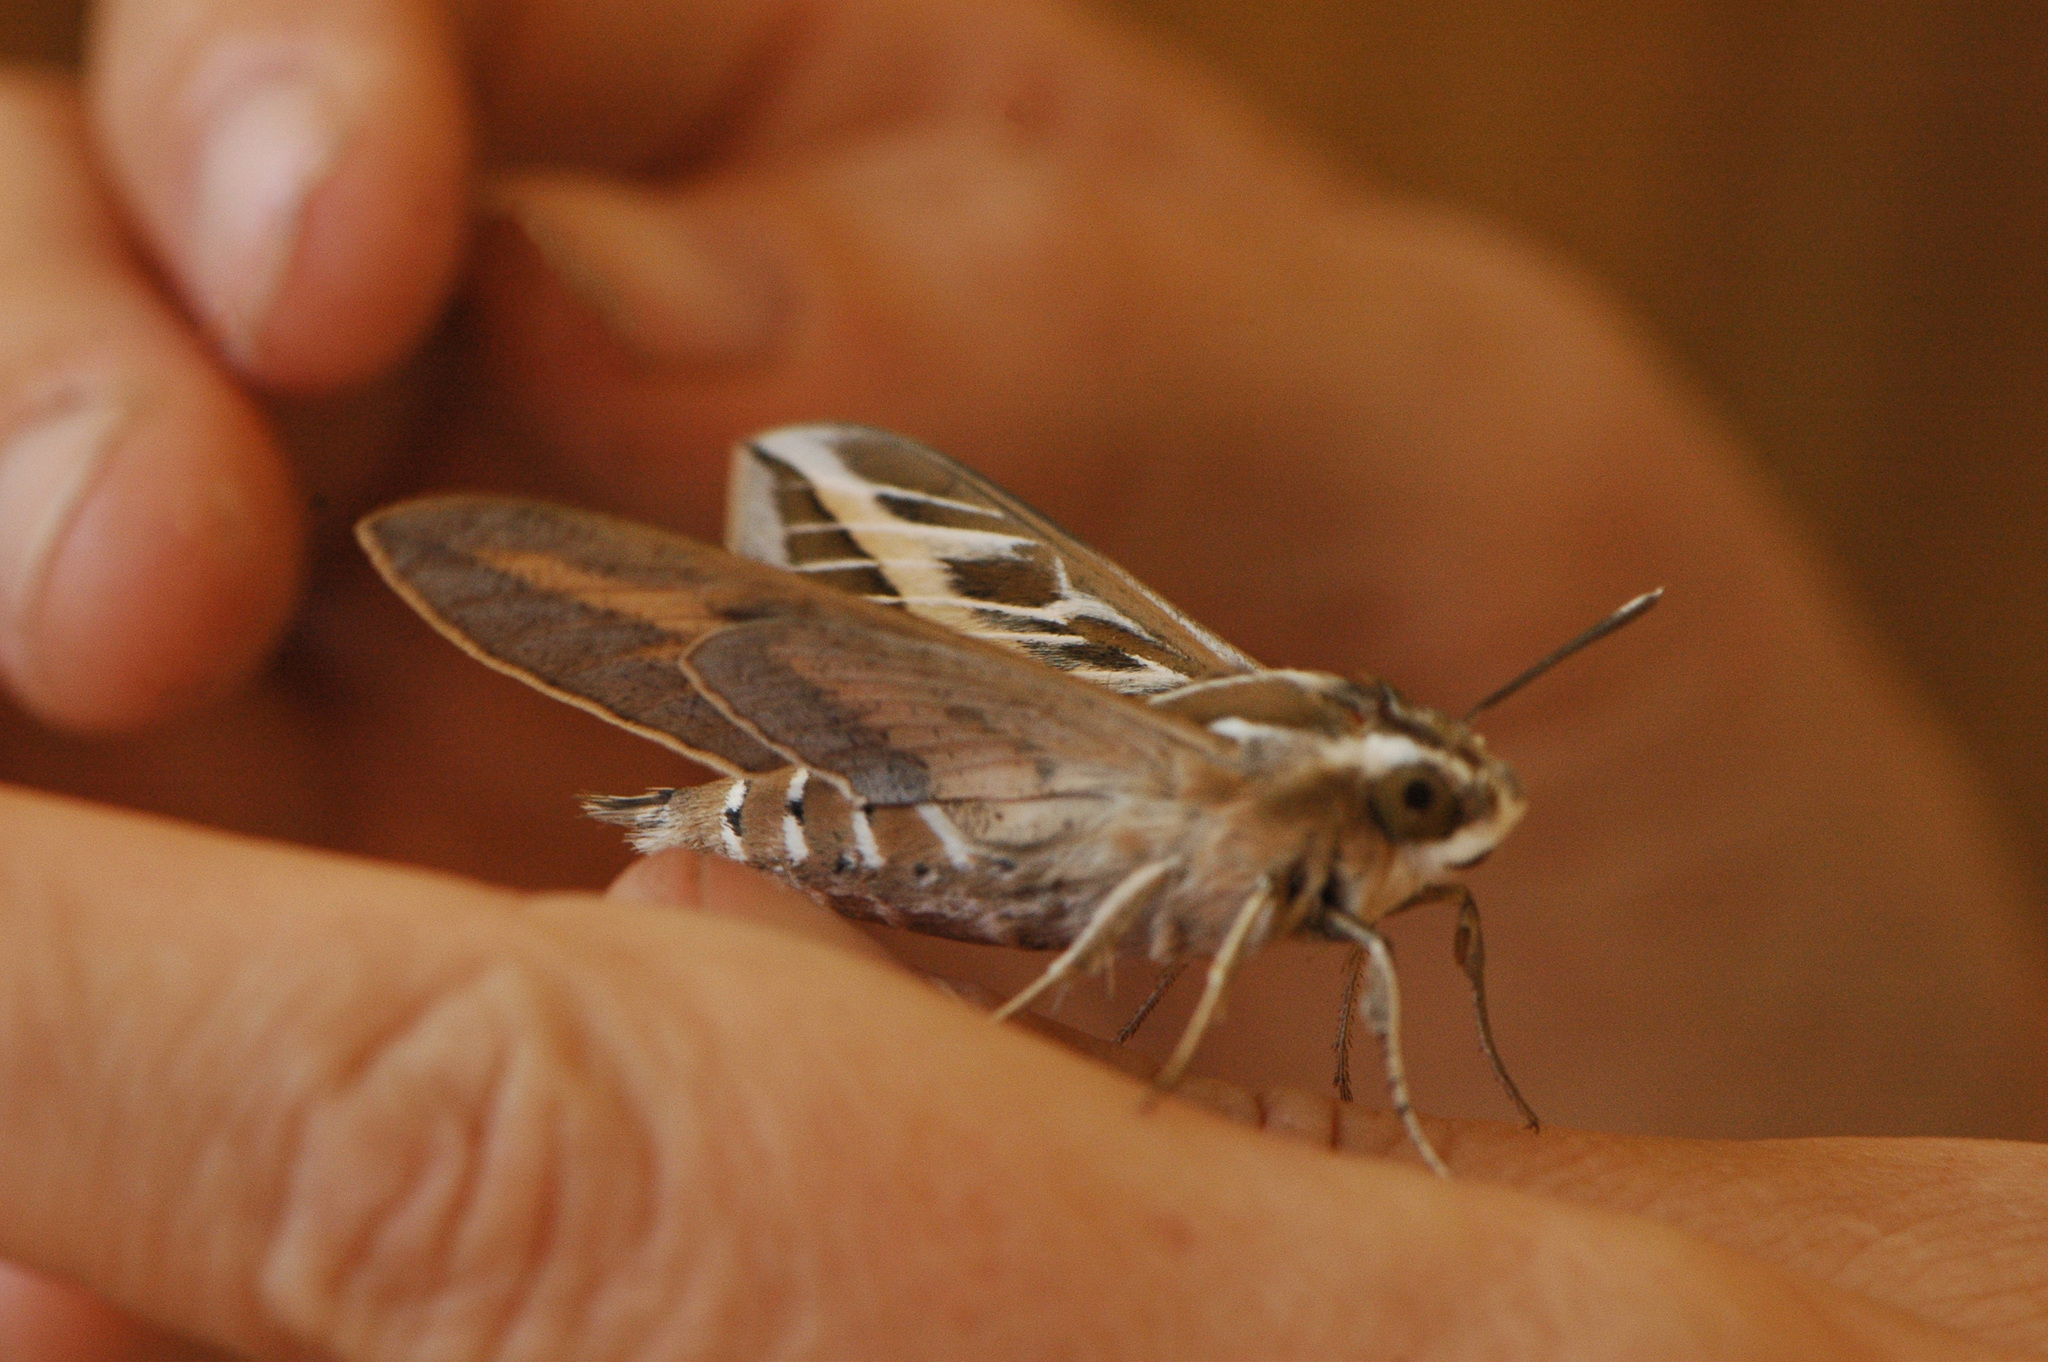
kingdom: Animalia
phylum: Arthropoda
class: Insecta
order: Lepidoptera
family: Sphingidae
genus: Hyles
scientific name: Hyles livornica
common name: Striped hawk-moth
